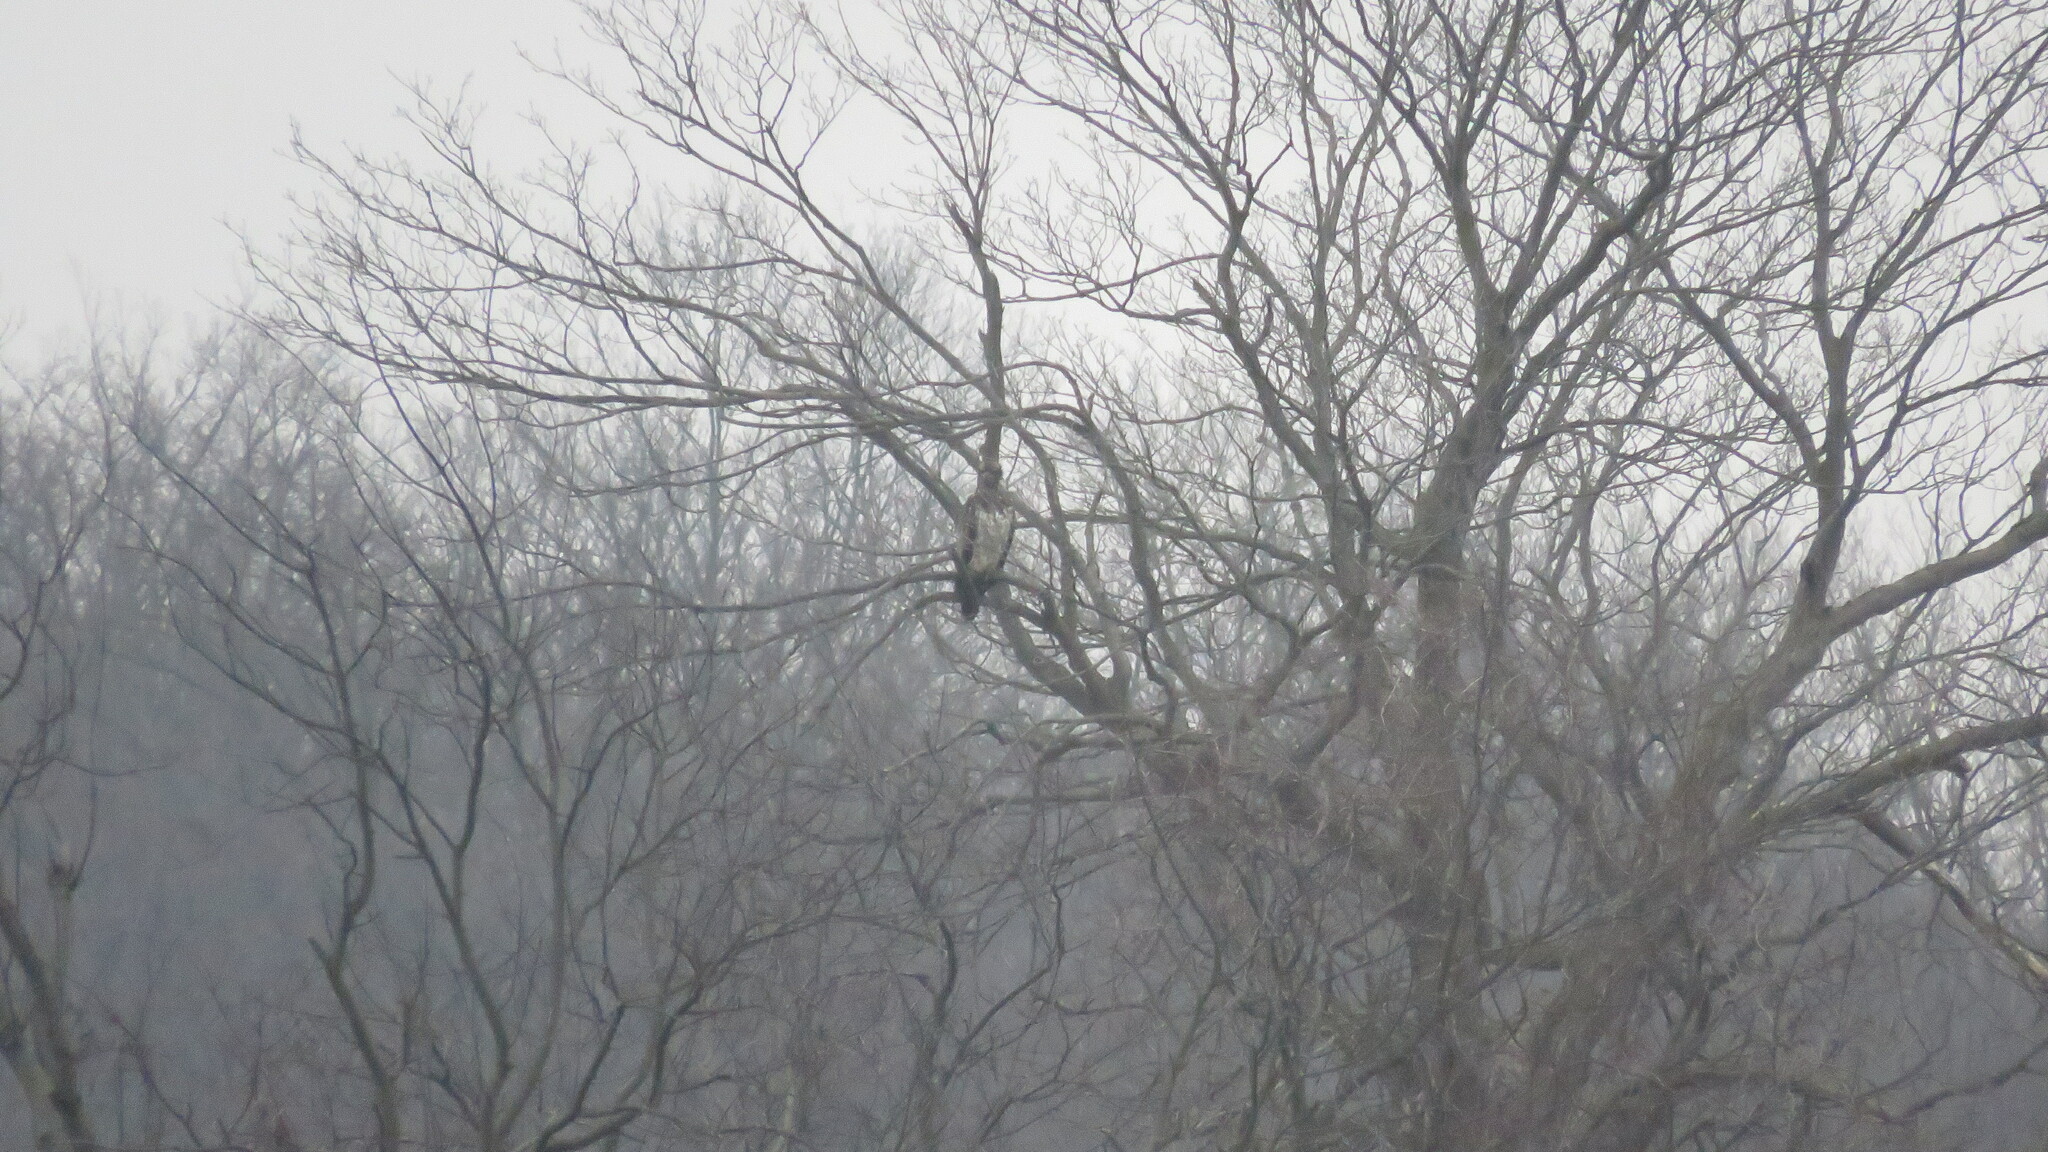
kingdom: Animalia
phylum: Chordata
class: Aves
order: Accipitriformes
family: Accipitridae
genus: Haliaeetus
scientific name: Haliaeetus leucocephalus
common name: Bald eagle
